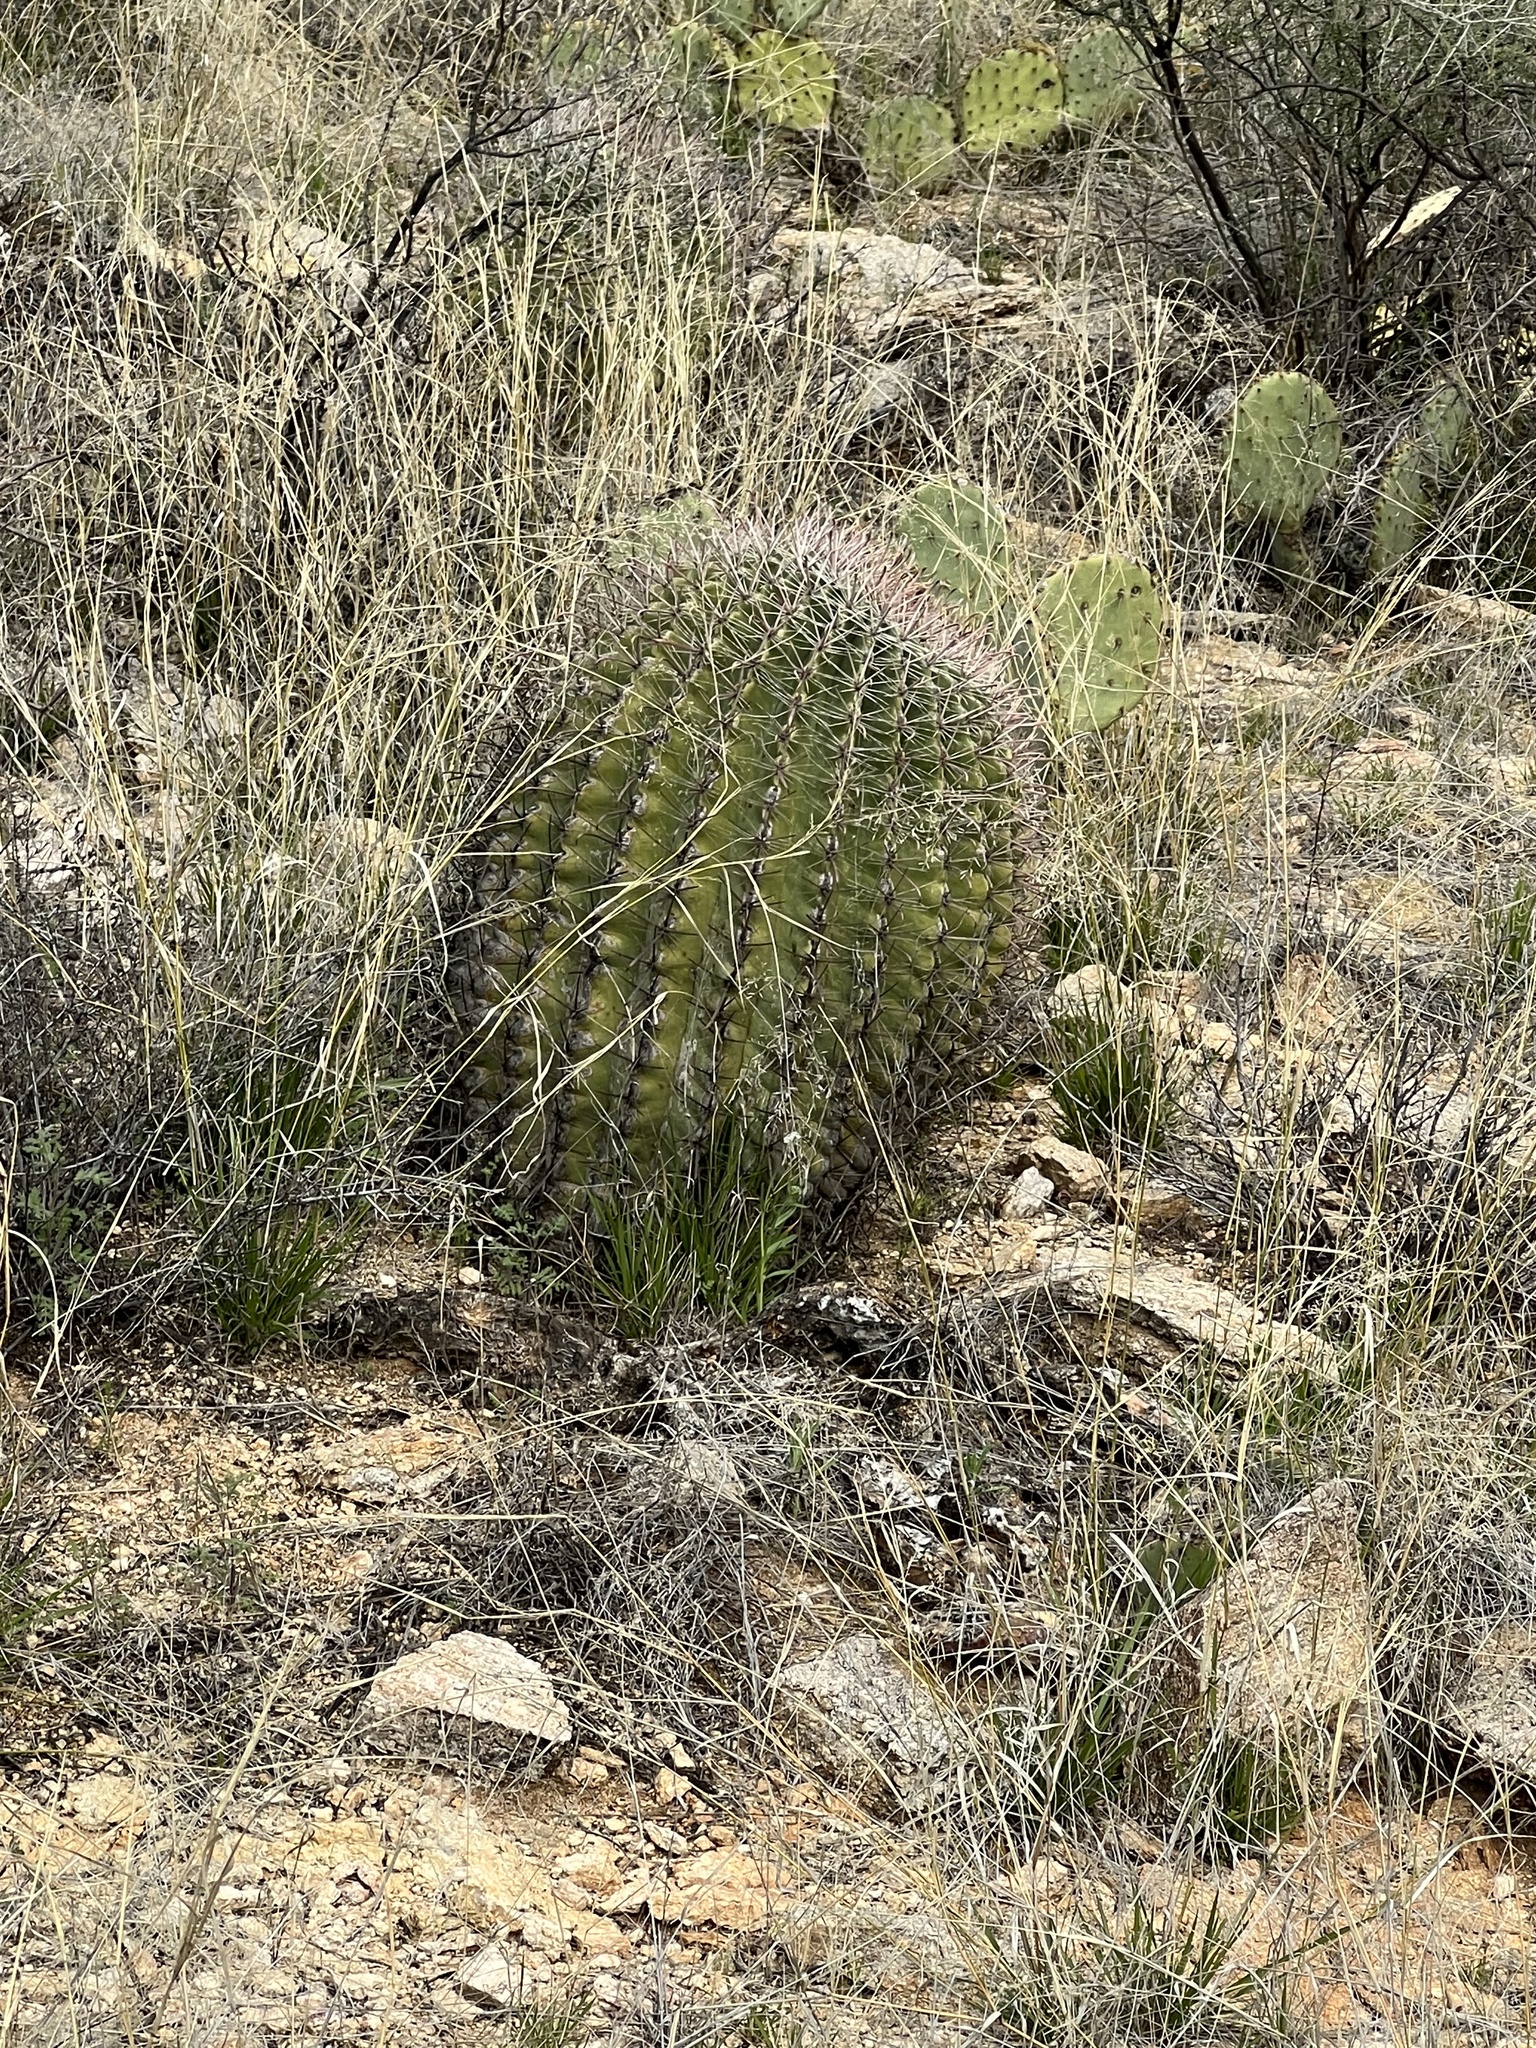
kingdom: Plantae
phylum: Tracheophyta
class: Magnoliopsida
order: Caryophyllales
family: Cactaceae
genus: Ferocactus
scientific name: Ferocactus wislizeni
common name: Candy barrel cactus
